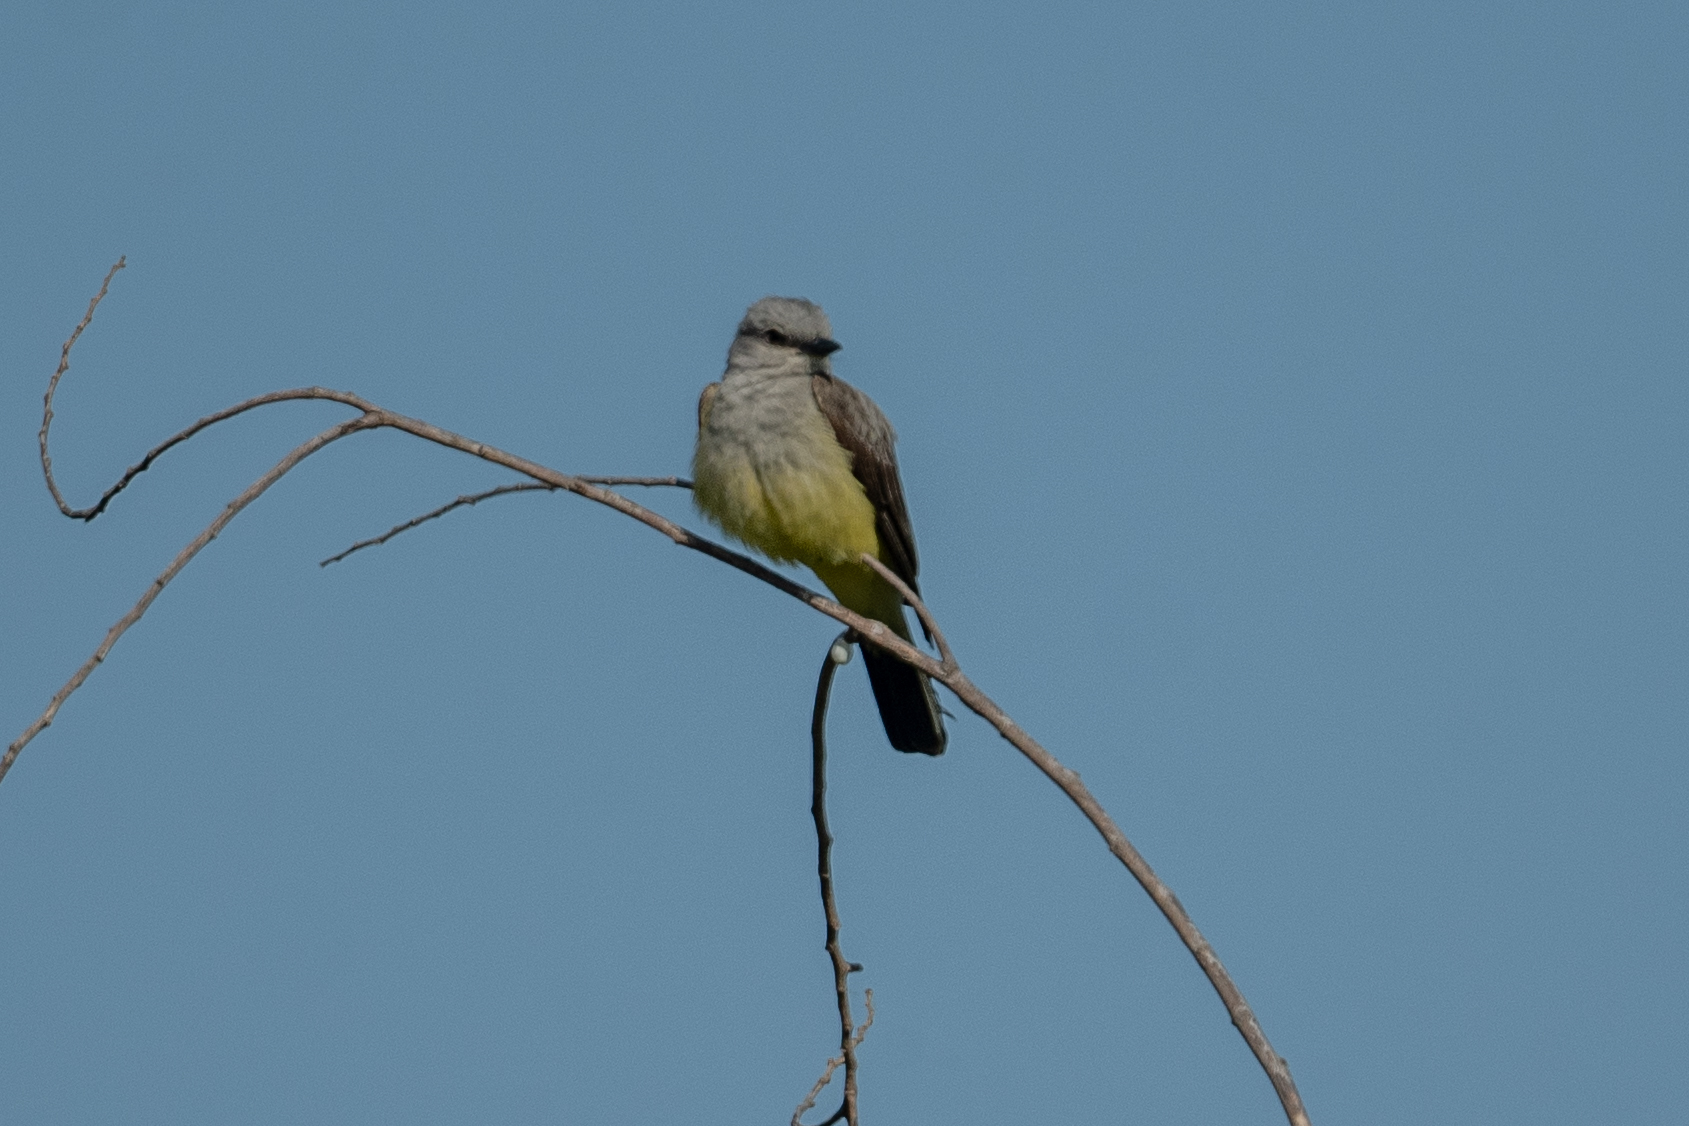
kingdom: Animalia
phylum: Chordata
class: Aves
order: Passeriformes
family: Tyrannidae
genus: Tyrannus
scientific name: Tyrannus verticalis
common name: Western kingbird
